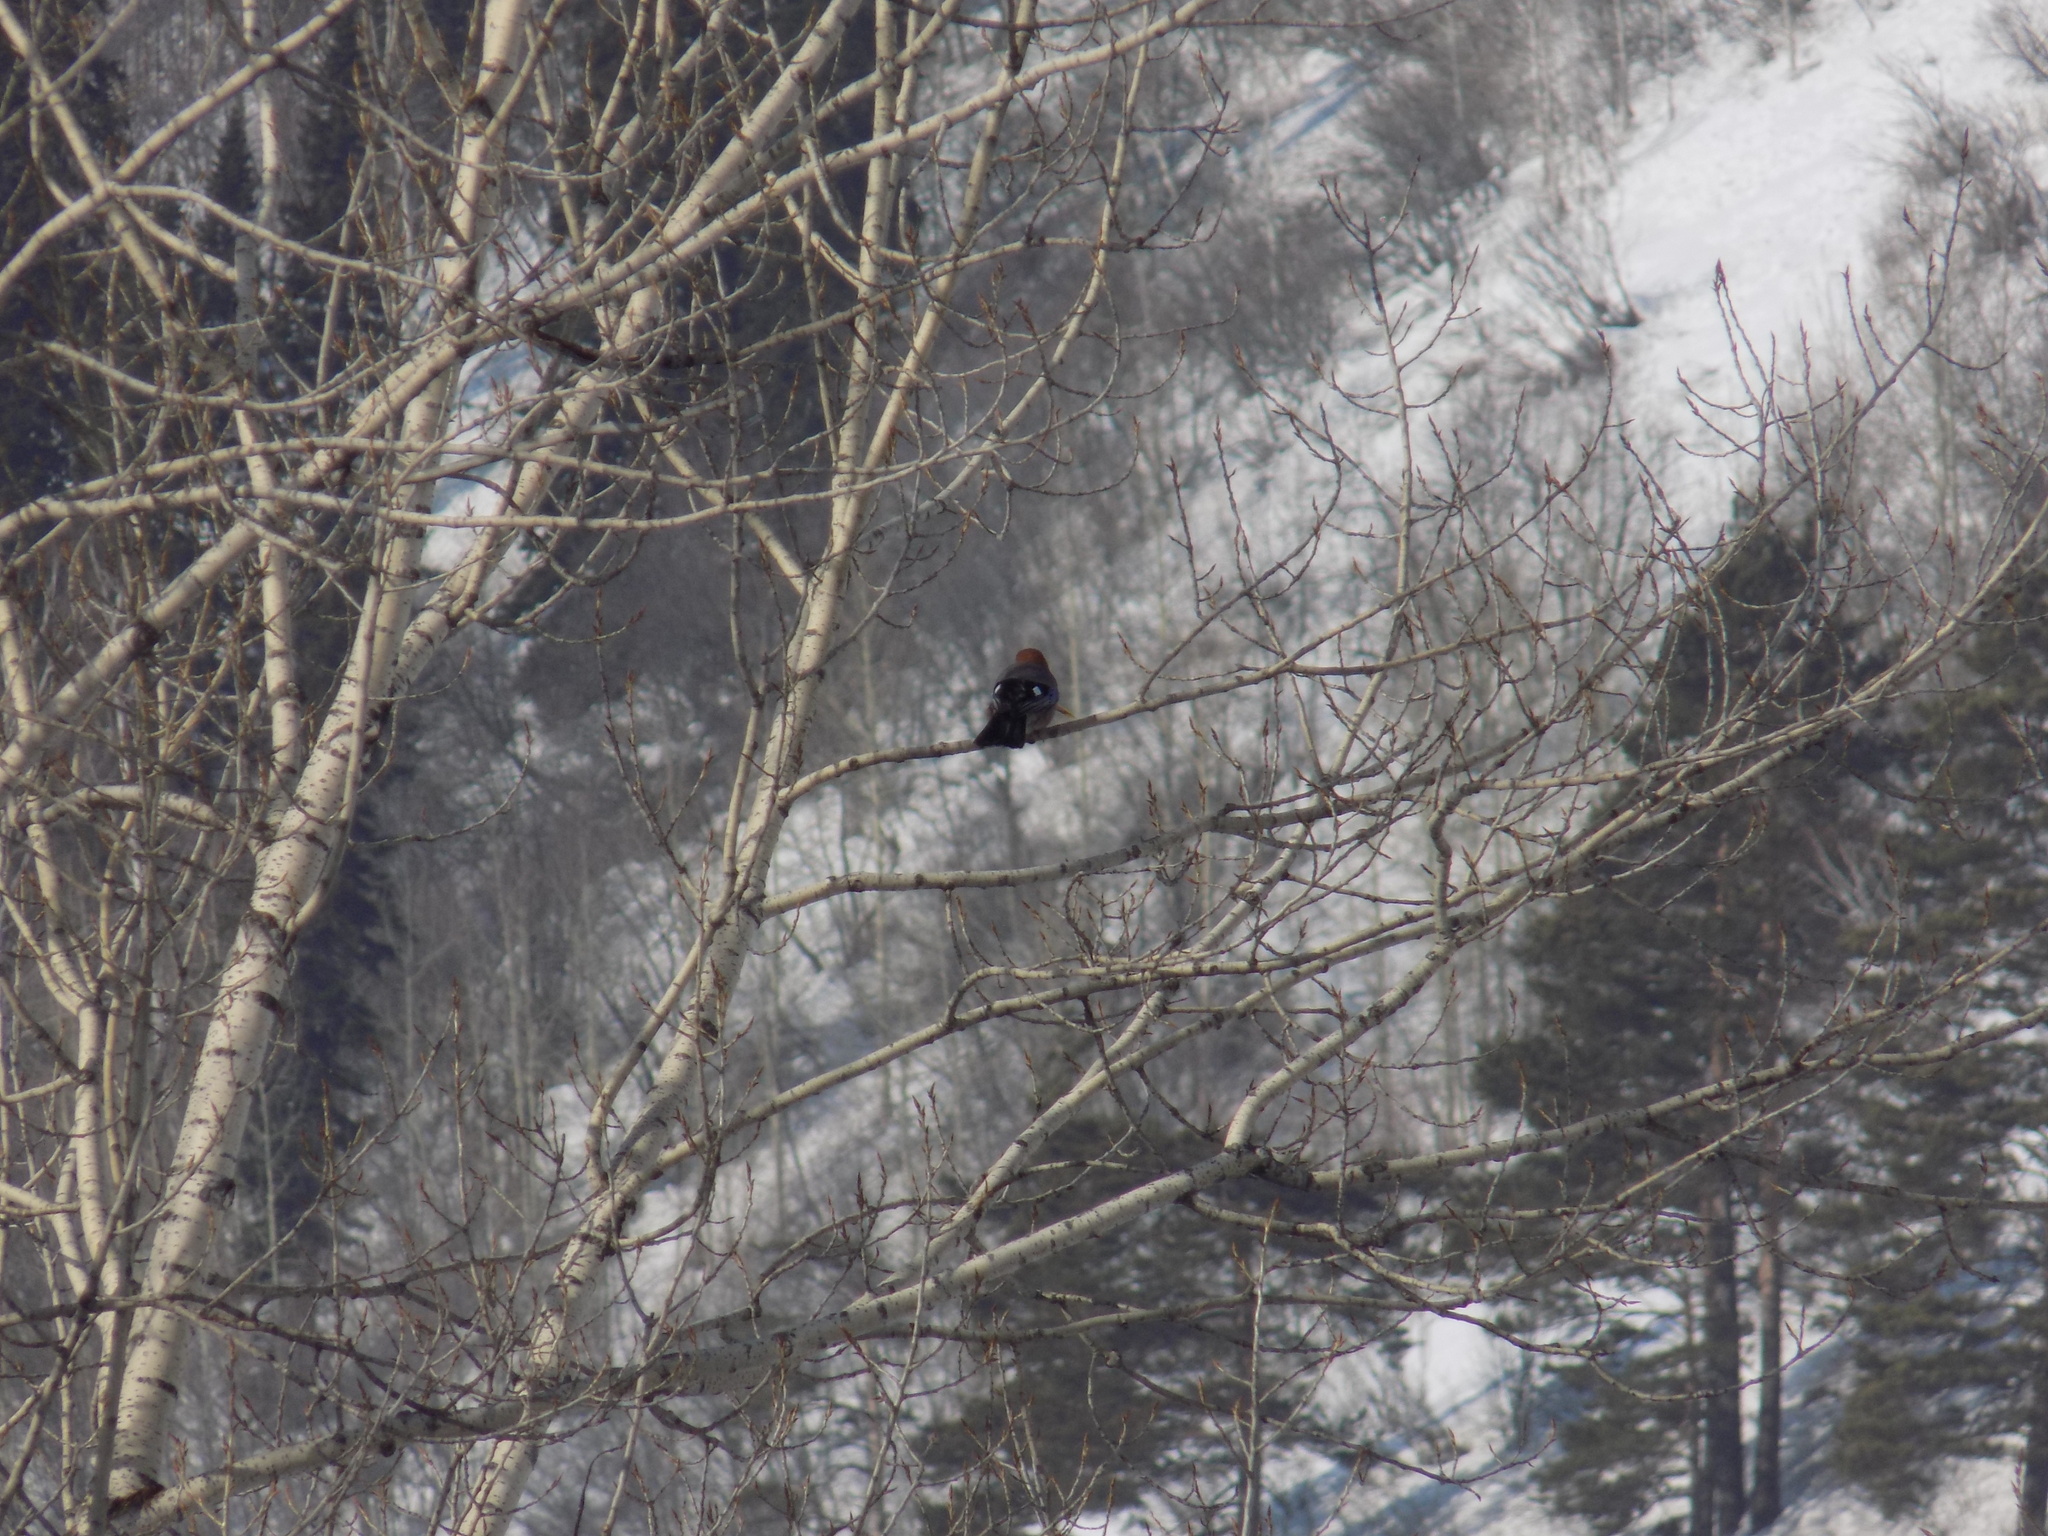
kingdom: Animalia
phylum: Chordata
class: Aves
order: Passeriformes
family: Corvidae
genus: Garrulus
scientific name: Garrulus glandarius
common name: Eurasian jay
